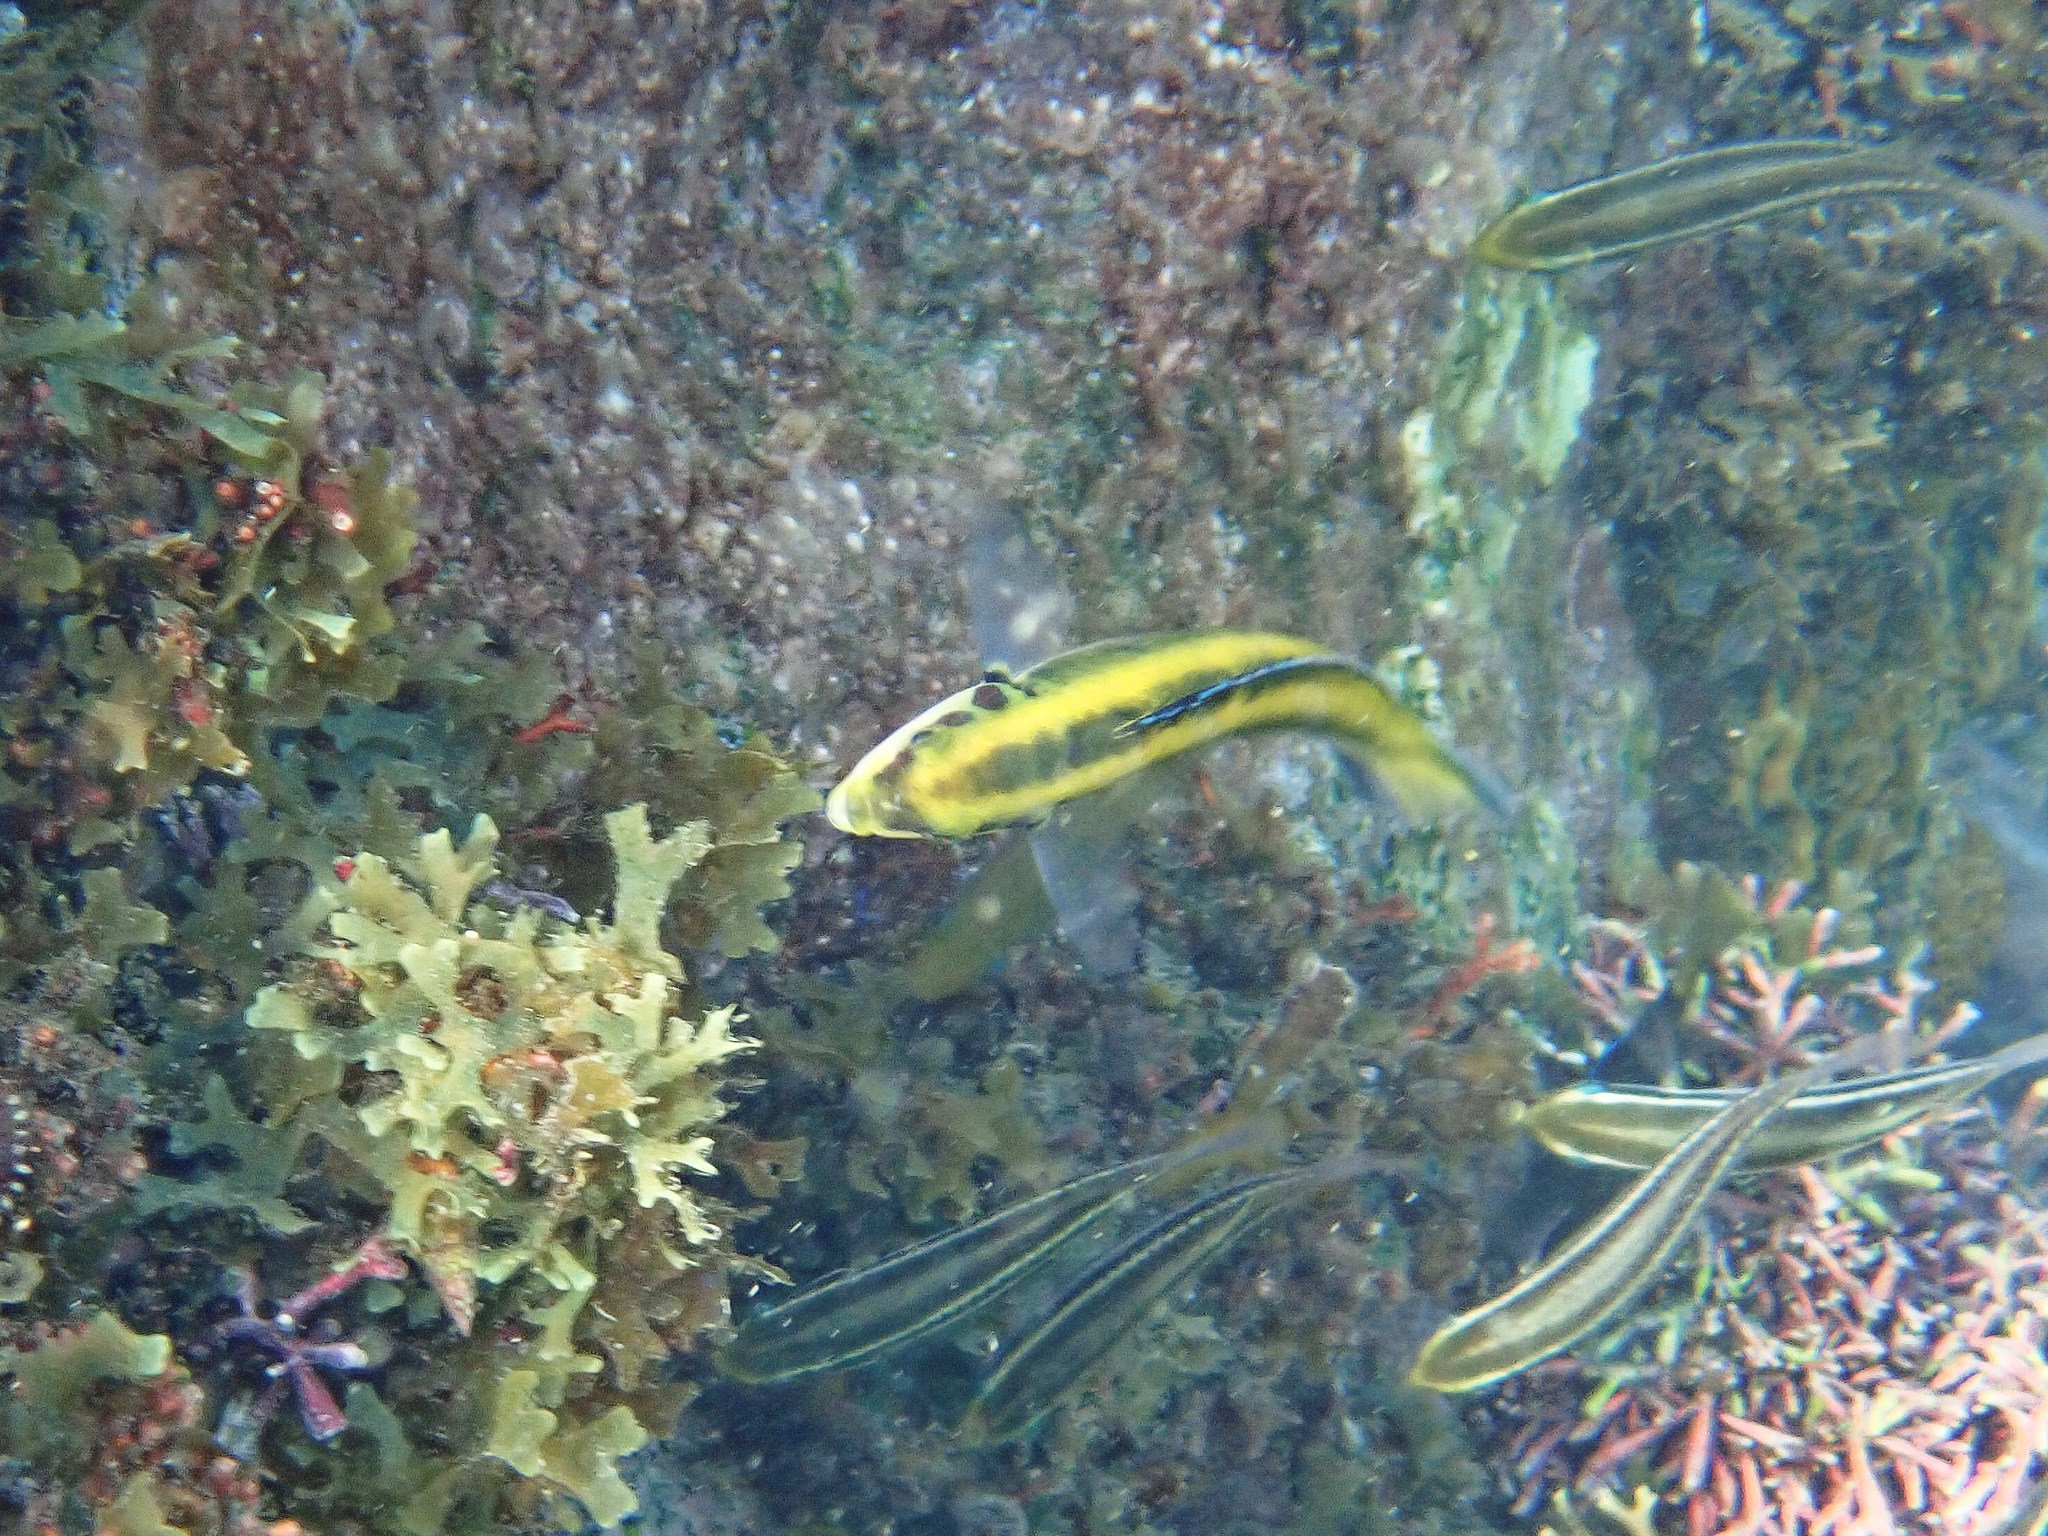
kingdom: Animalia
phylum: Chordata
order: Perciformes
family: Labridae
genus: Thalassoma
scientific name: Thalassoma bifasciatum
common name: Bluehead wrasse
